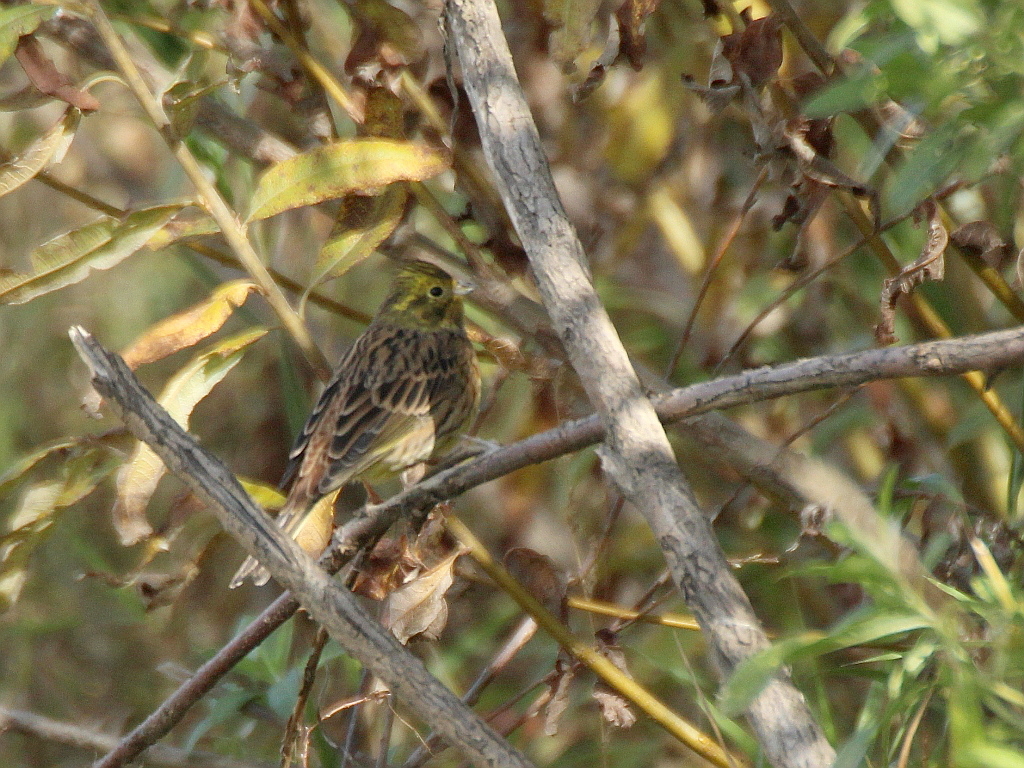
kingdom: Animalia
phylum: Chordata
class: Aves
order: Passeriformes
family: Emberizidae
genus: Emberiza
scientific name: Emberiza citrinella
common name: Yellowhammer
